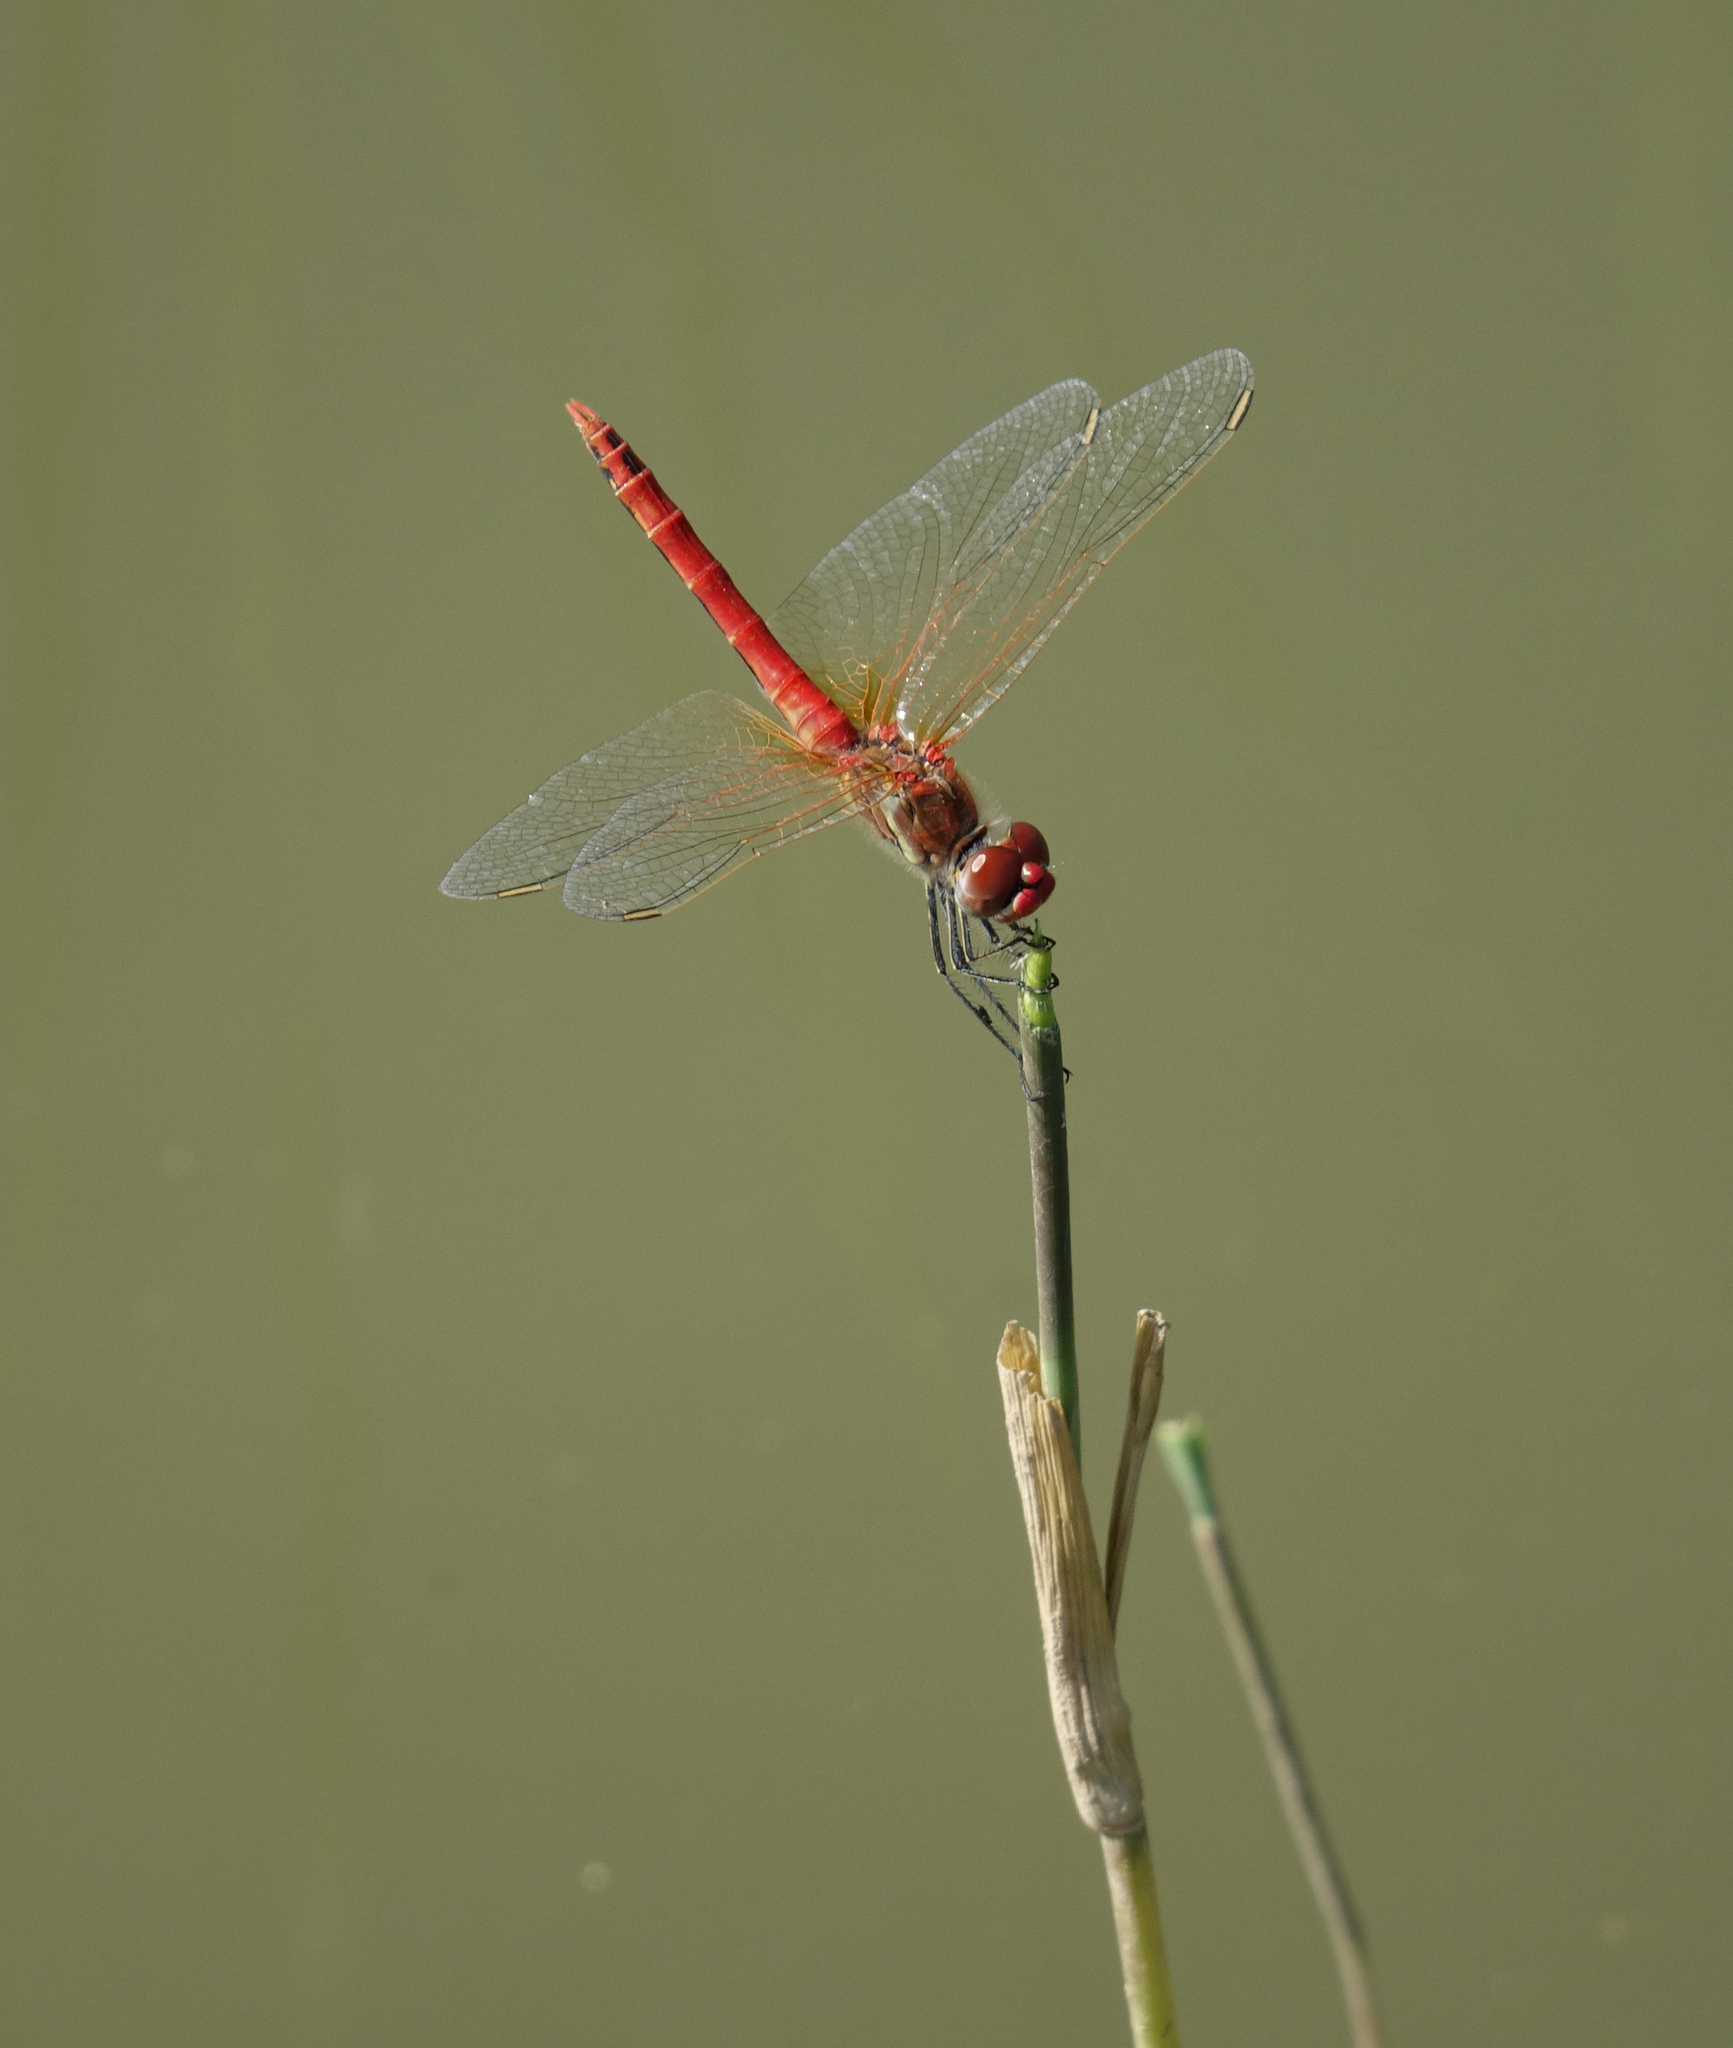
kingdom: Animalia
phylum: Arthropoda
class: Insecta
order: Odonata
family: Libellulidae
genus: Sympetrum
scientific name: Sympetrum fonscolombii
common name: Red-veined darter
